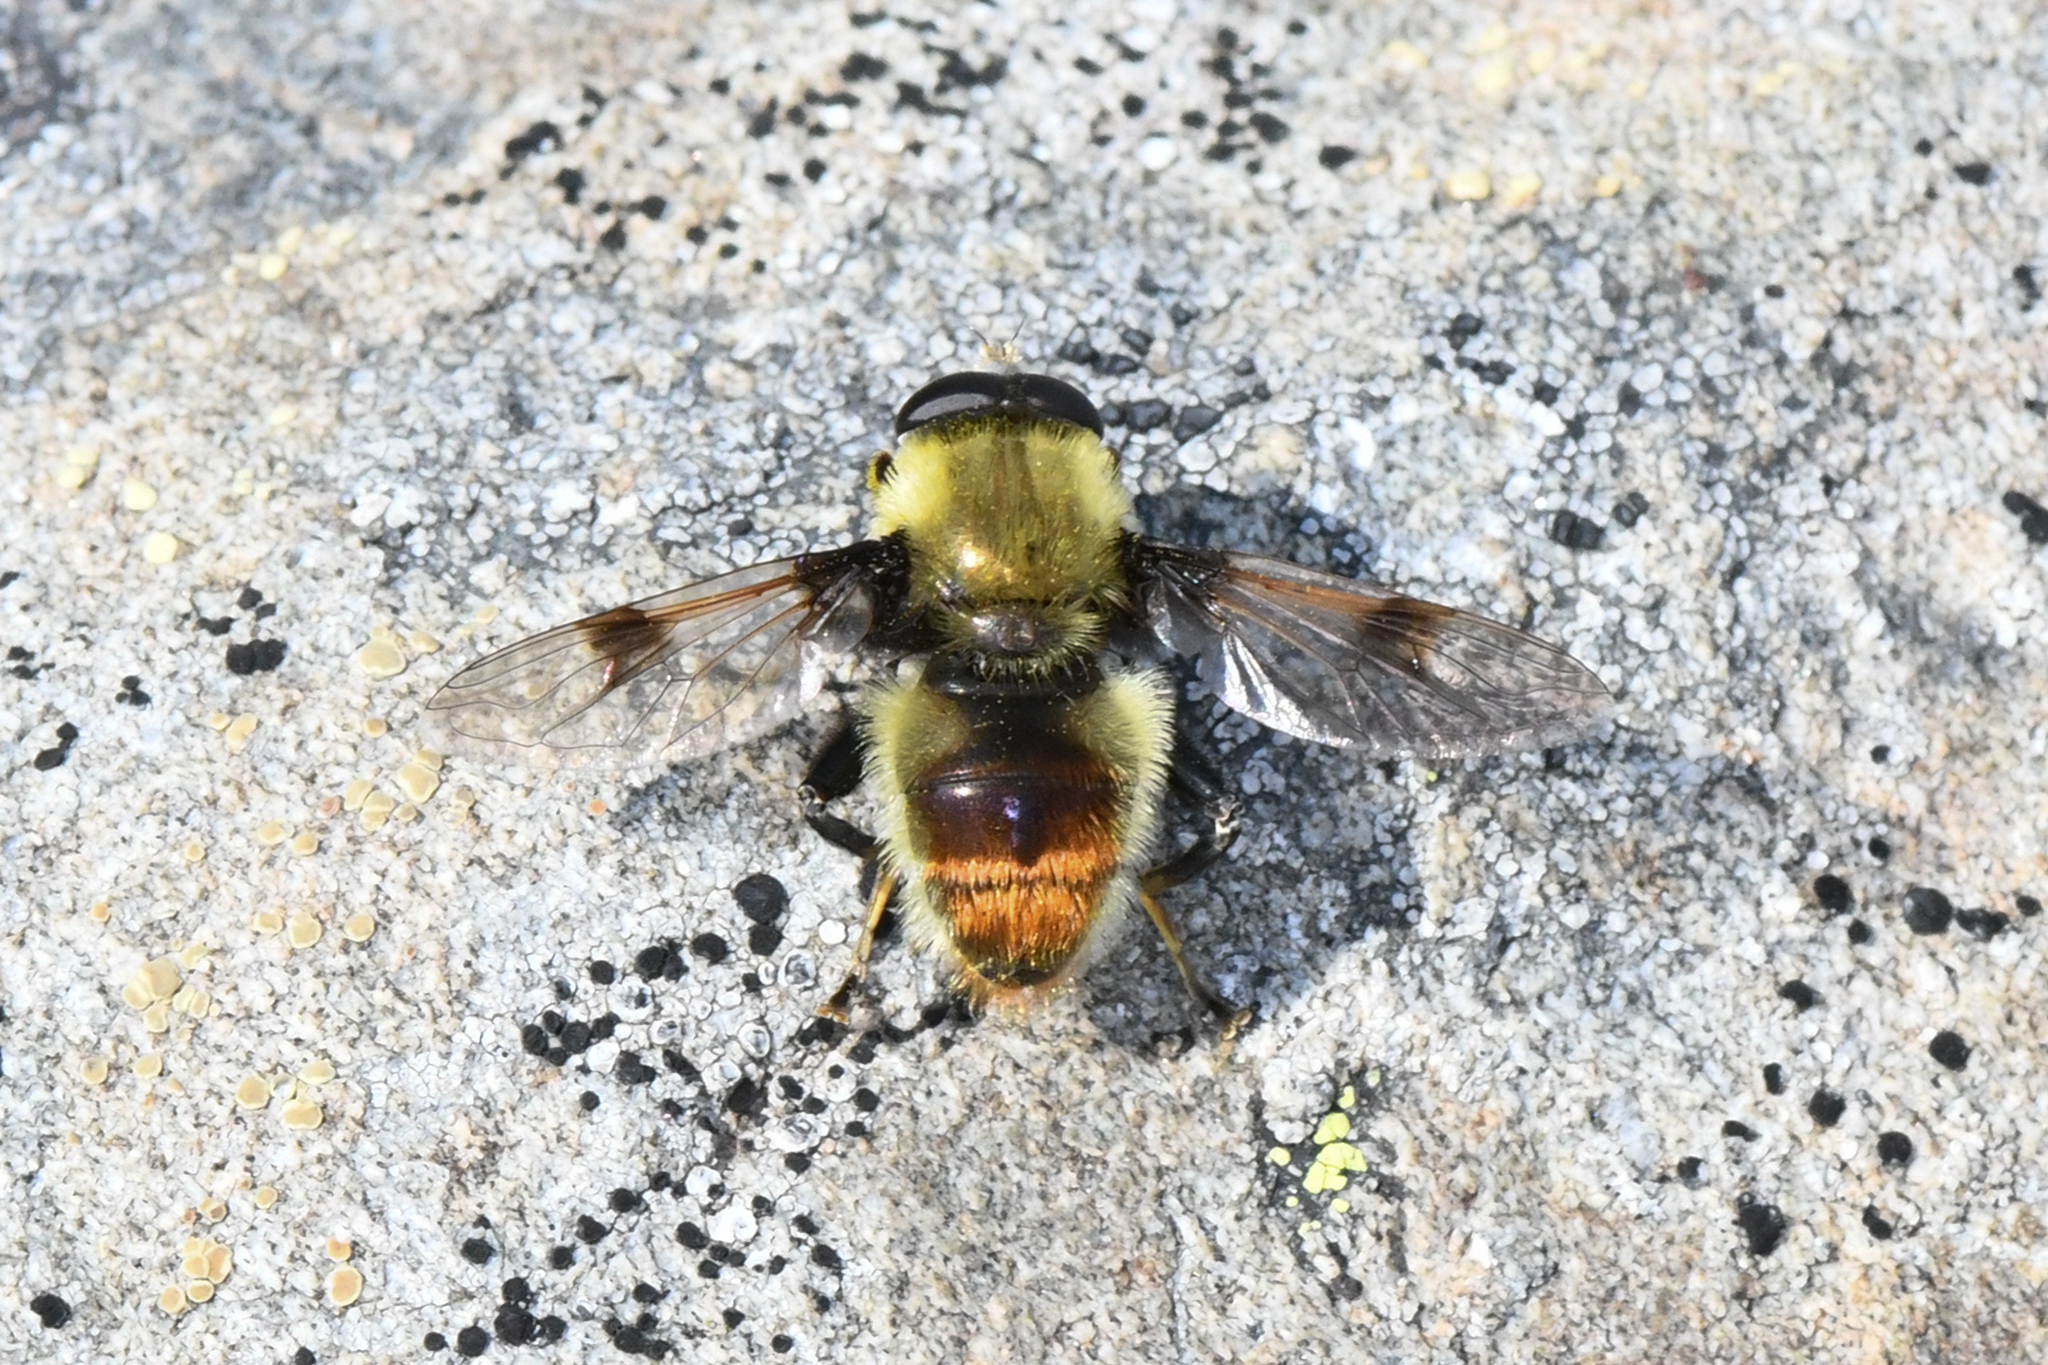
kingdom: Animalia
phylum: Arthropoda
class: Insecta
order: Diptera
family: Syrphidae
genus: Sericomyia
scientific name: Sericomyia flagrans
